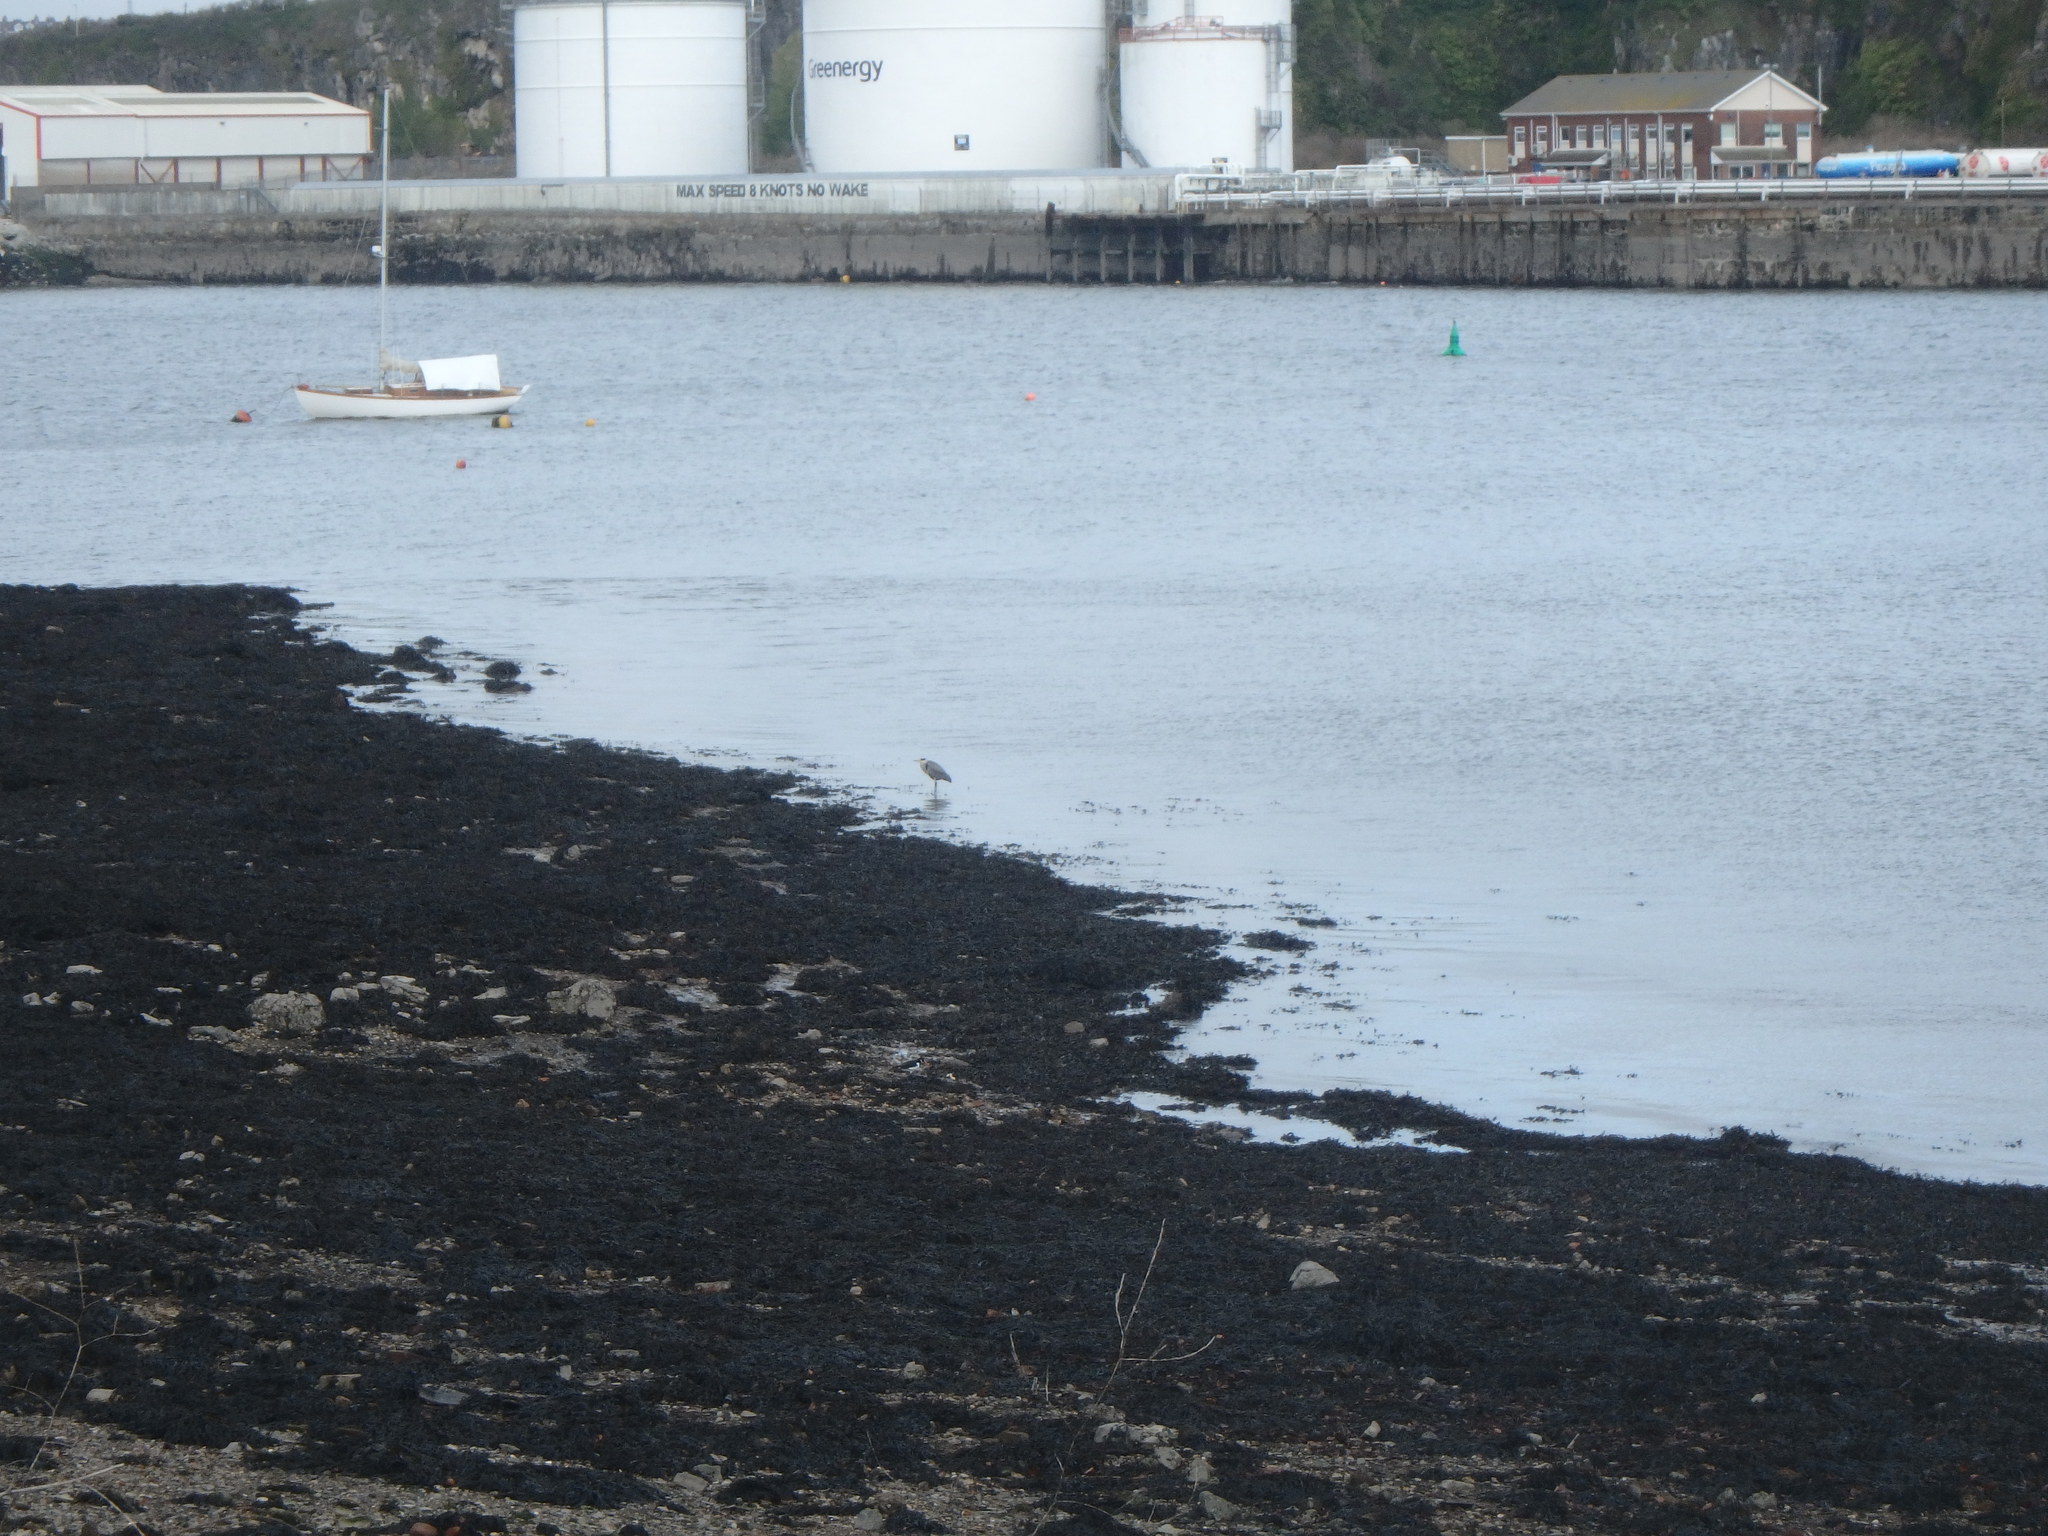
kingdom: Animalia
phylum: Chordata
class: Aves
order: Pelecaniformes
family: Ardeidae
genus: Ardea
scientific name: Ardea cinerea
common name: Grey heron
